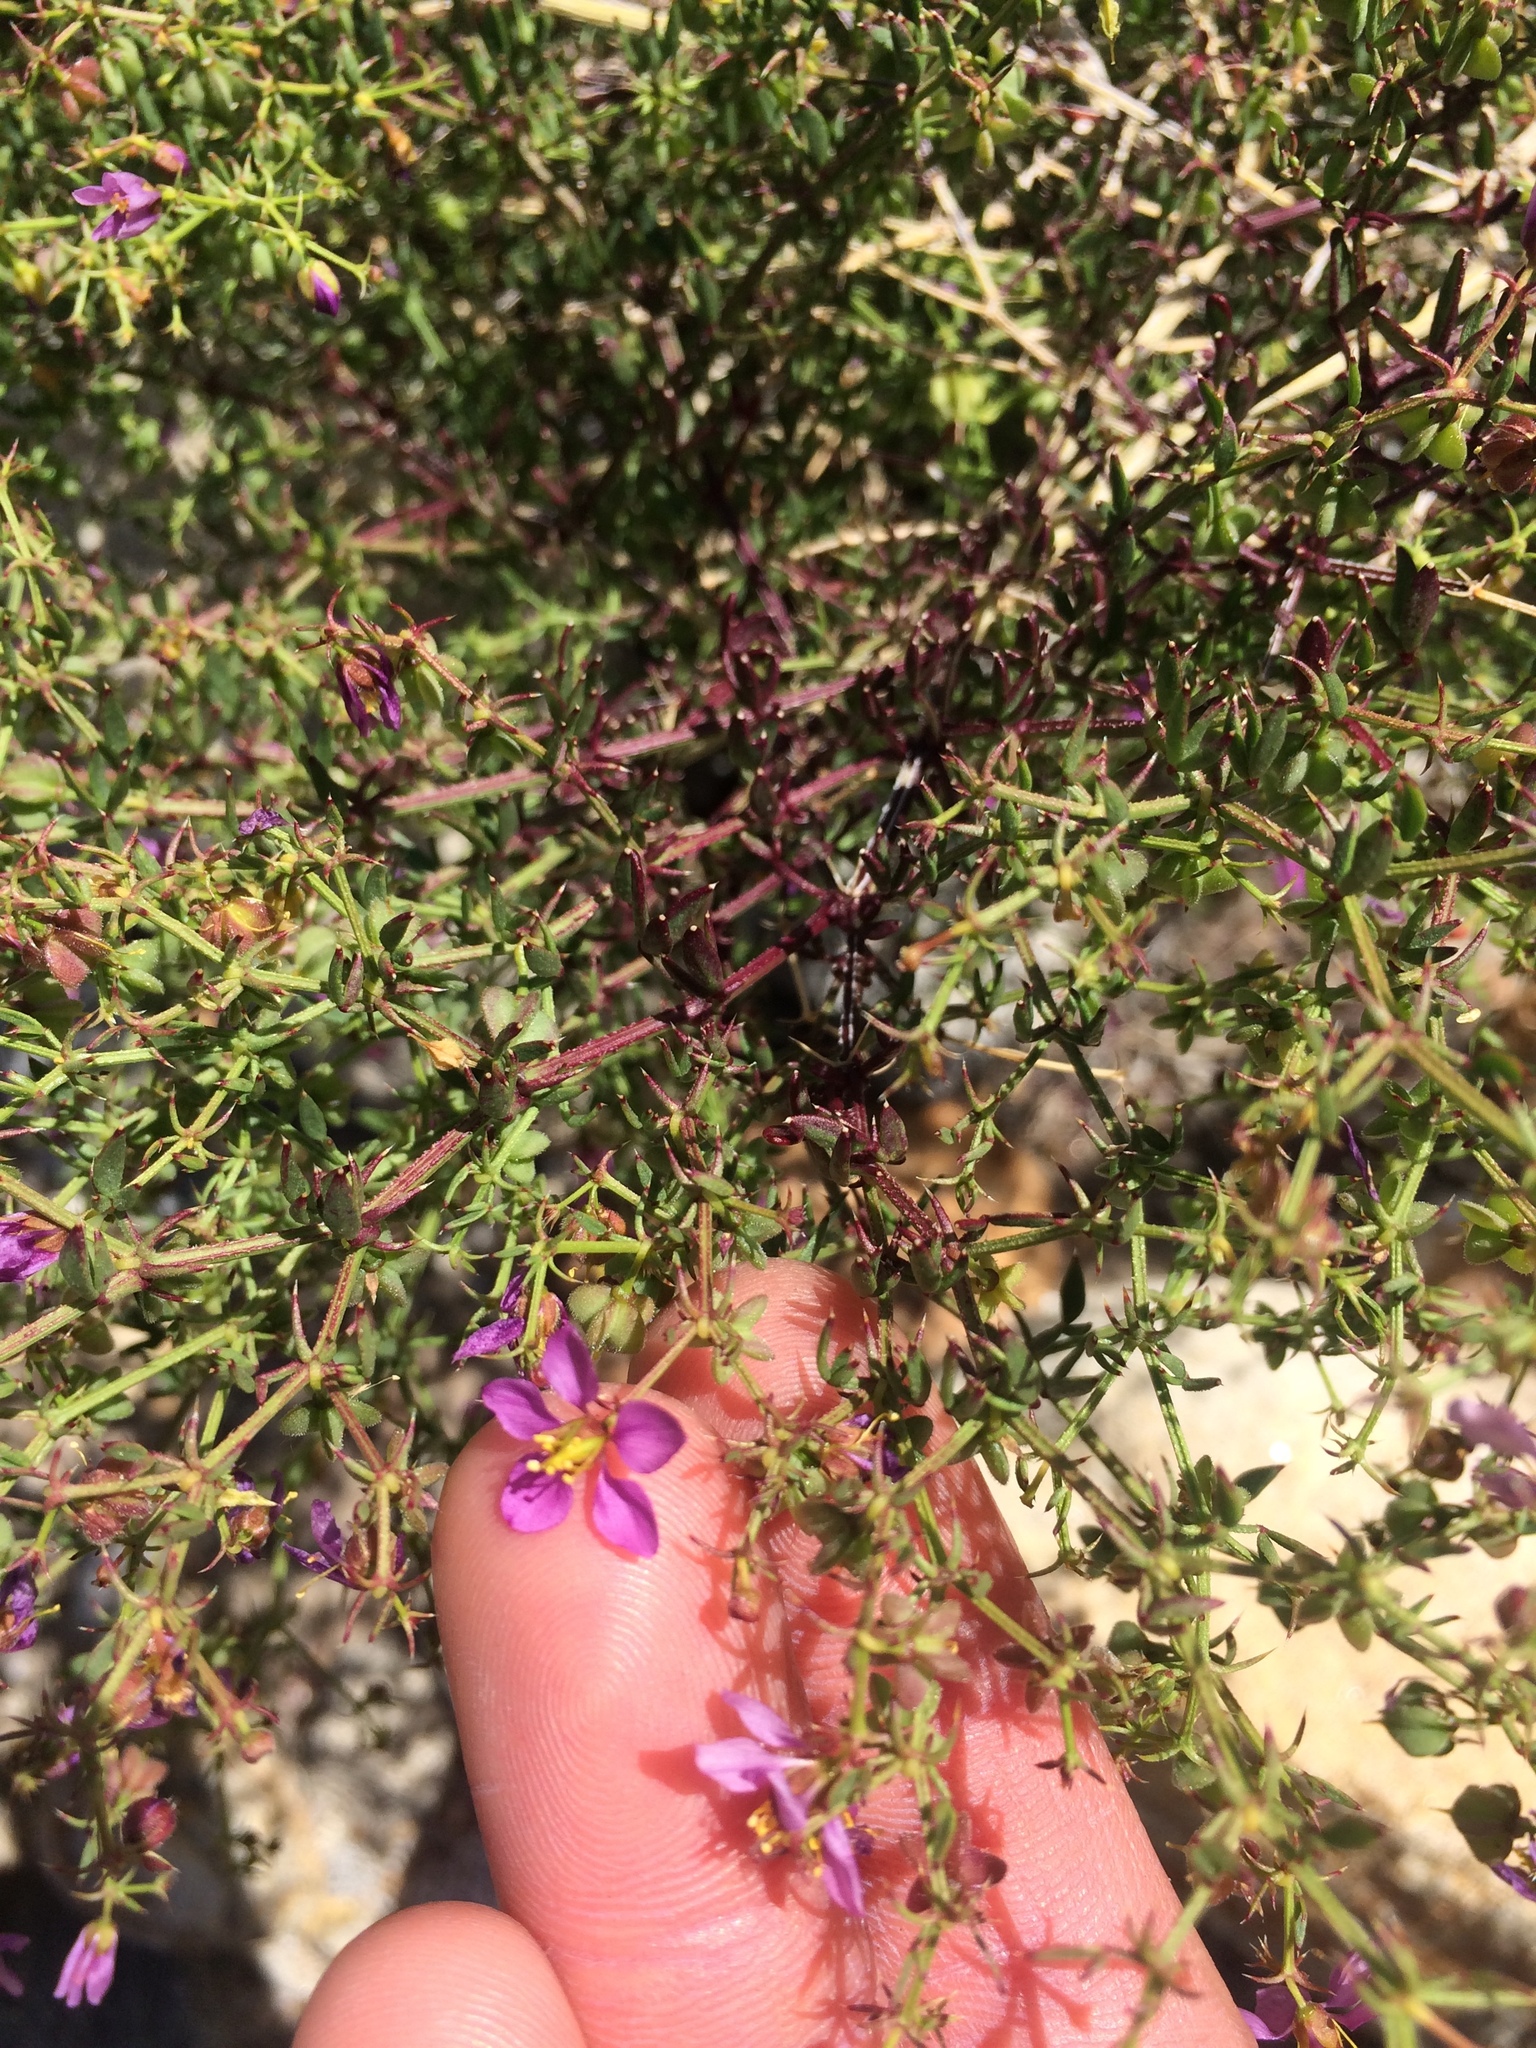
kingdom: Plantae
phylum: Tracheophyta
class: Magnoliopsida
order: Zygophyllales
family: Zygophyllaceae
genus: Fagonia
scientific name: Fagonia laevis
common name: California fagonbush
